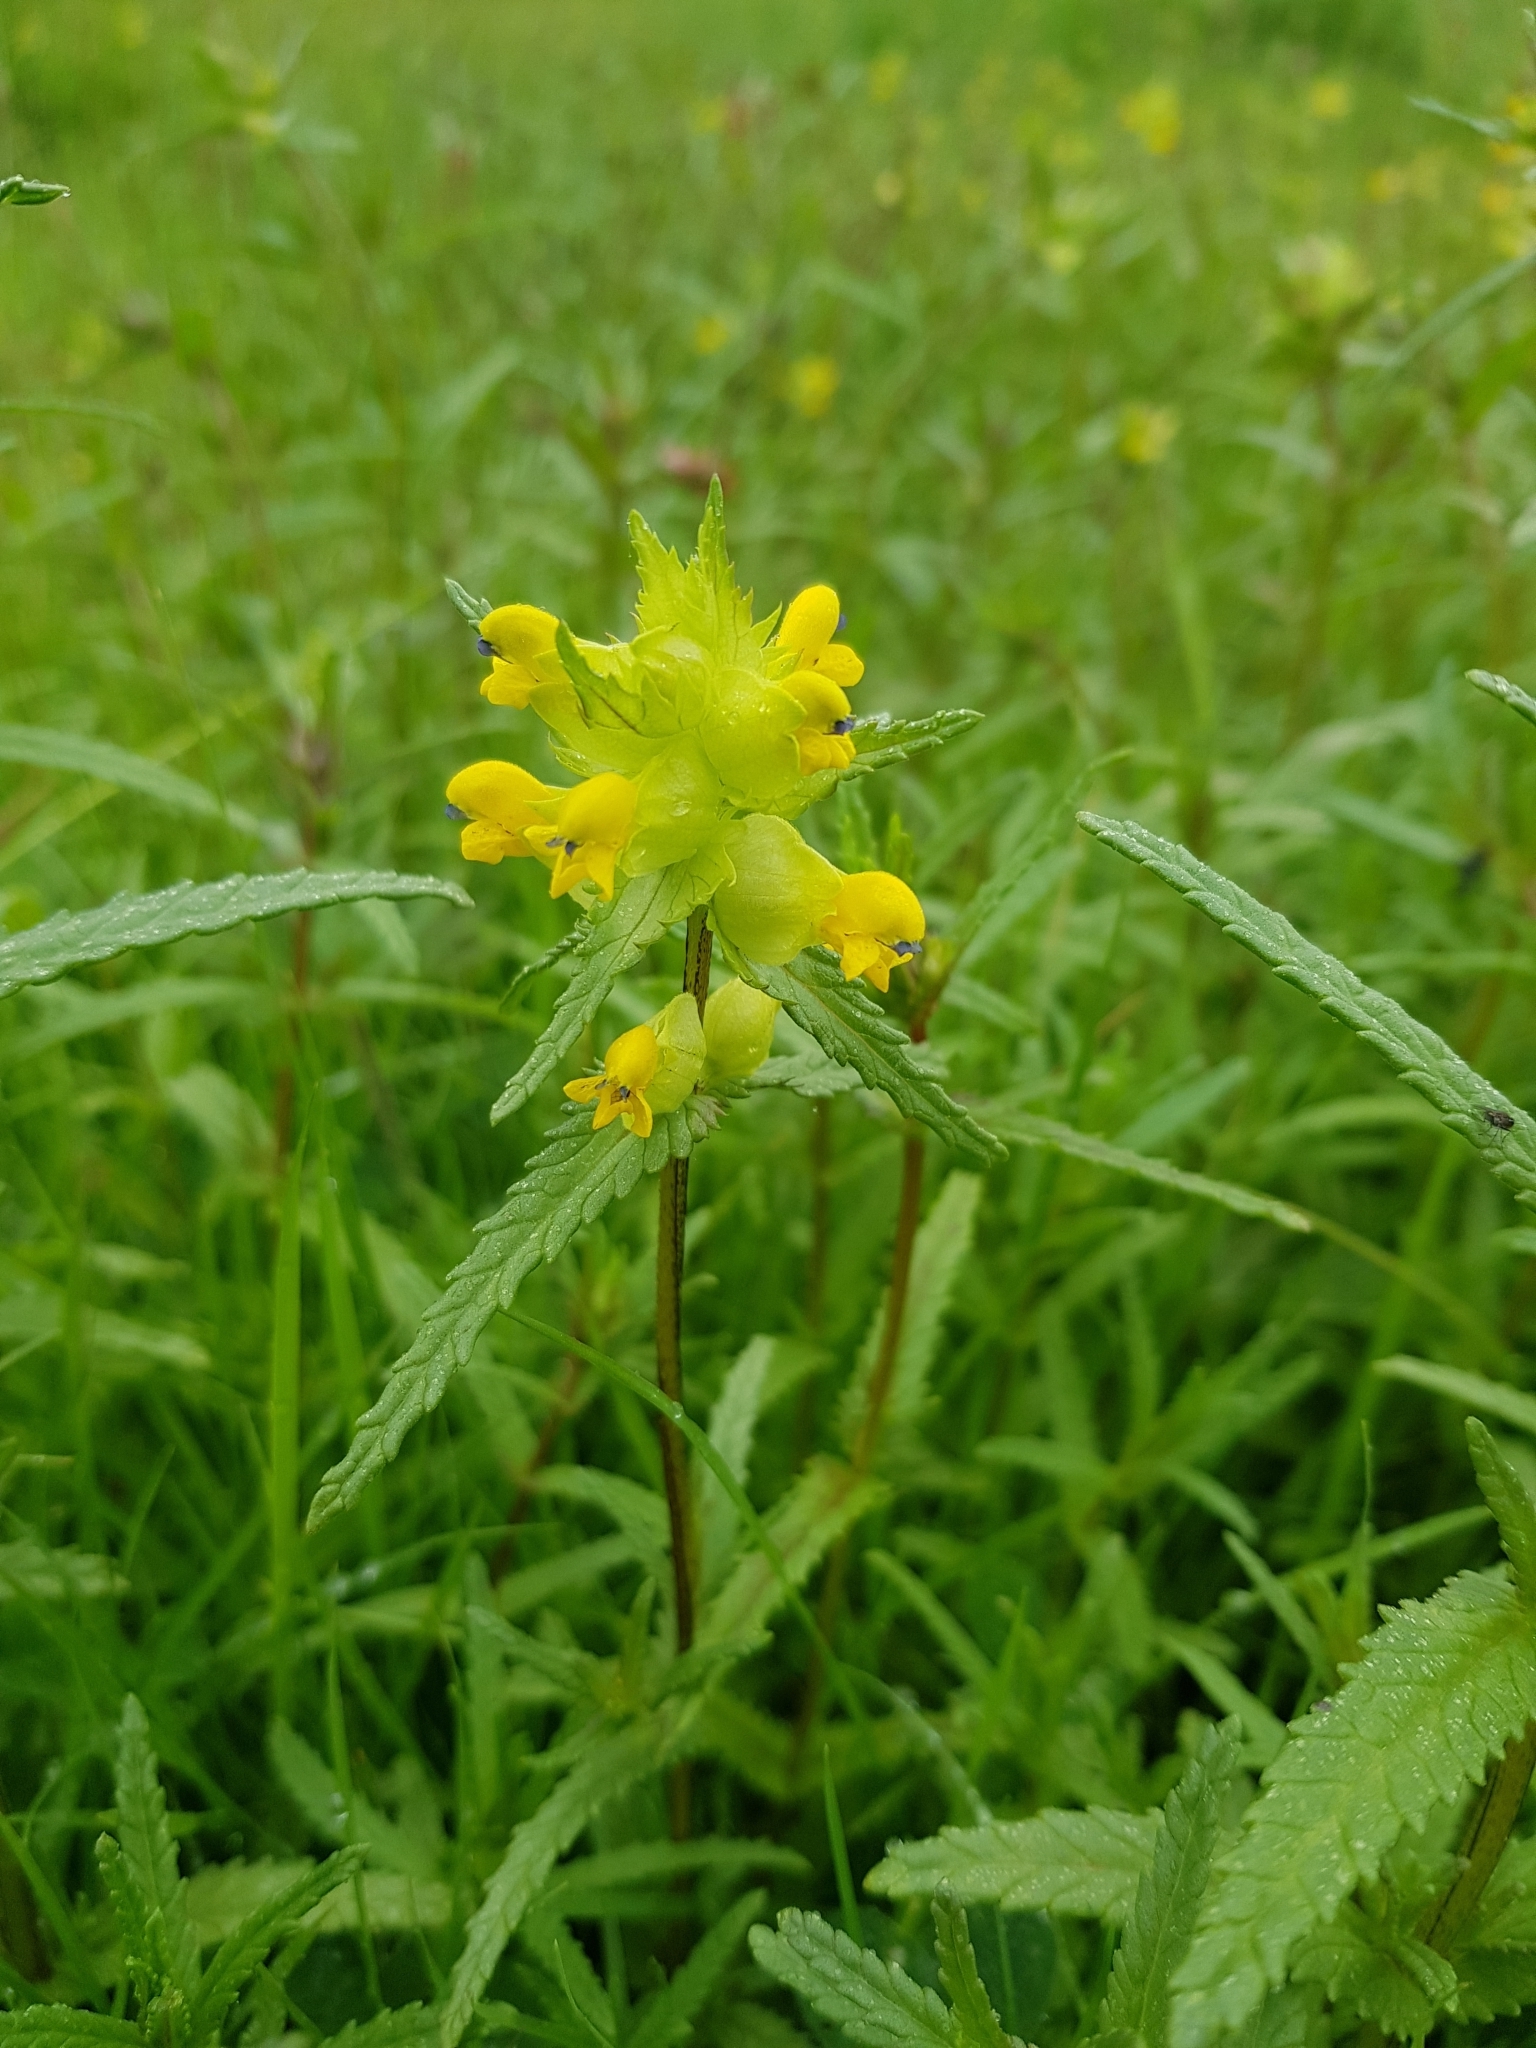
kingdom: Plantae
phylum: Tracheophyta
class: Magnoliopsida
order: Lamiales
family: Orobanchaceae
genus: Rhinanthus
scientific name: Rhinanthus minor
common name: Yellow-rattle
